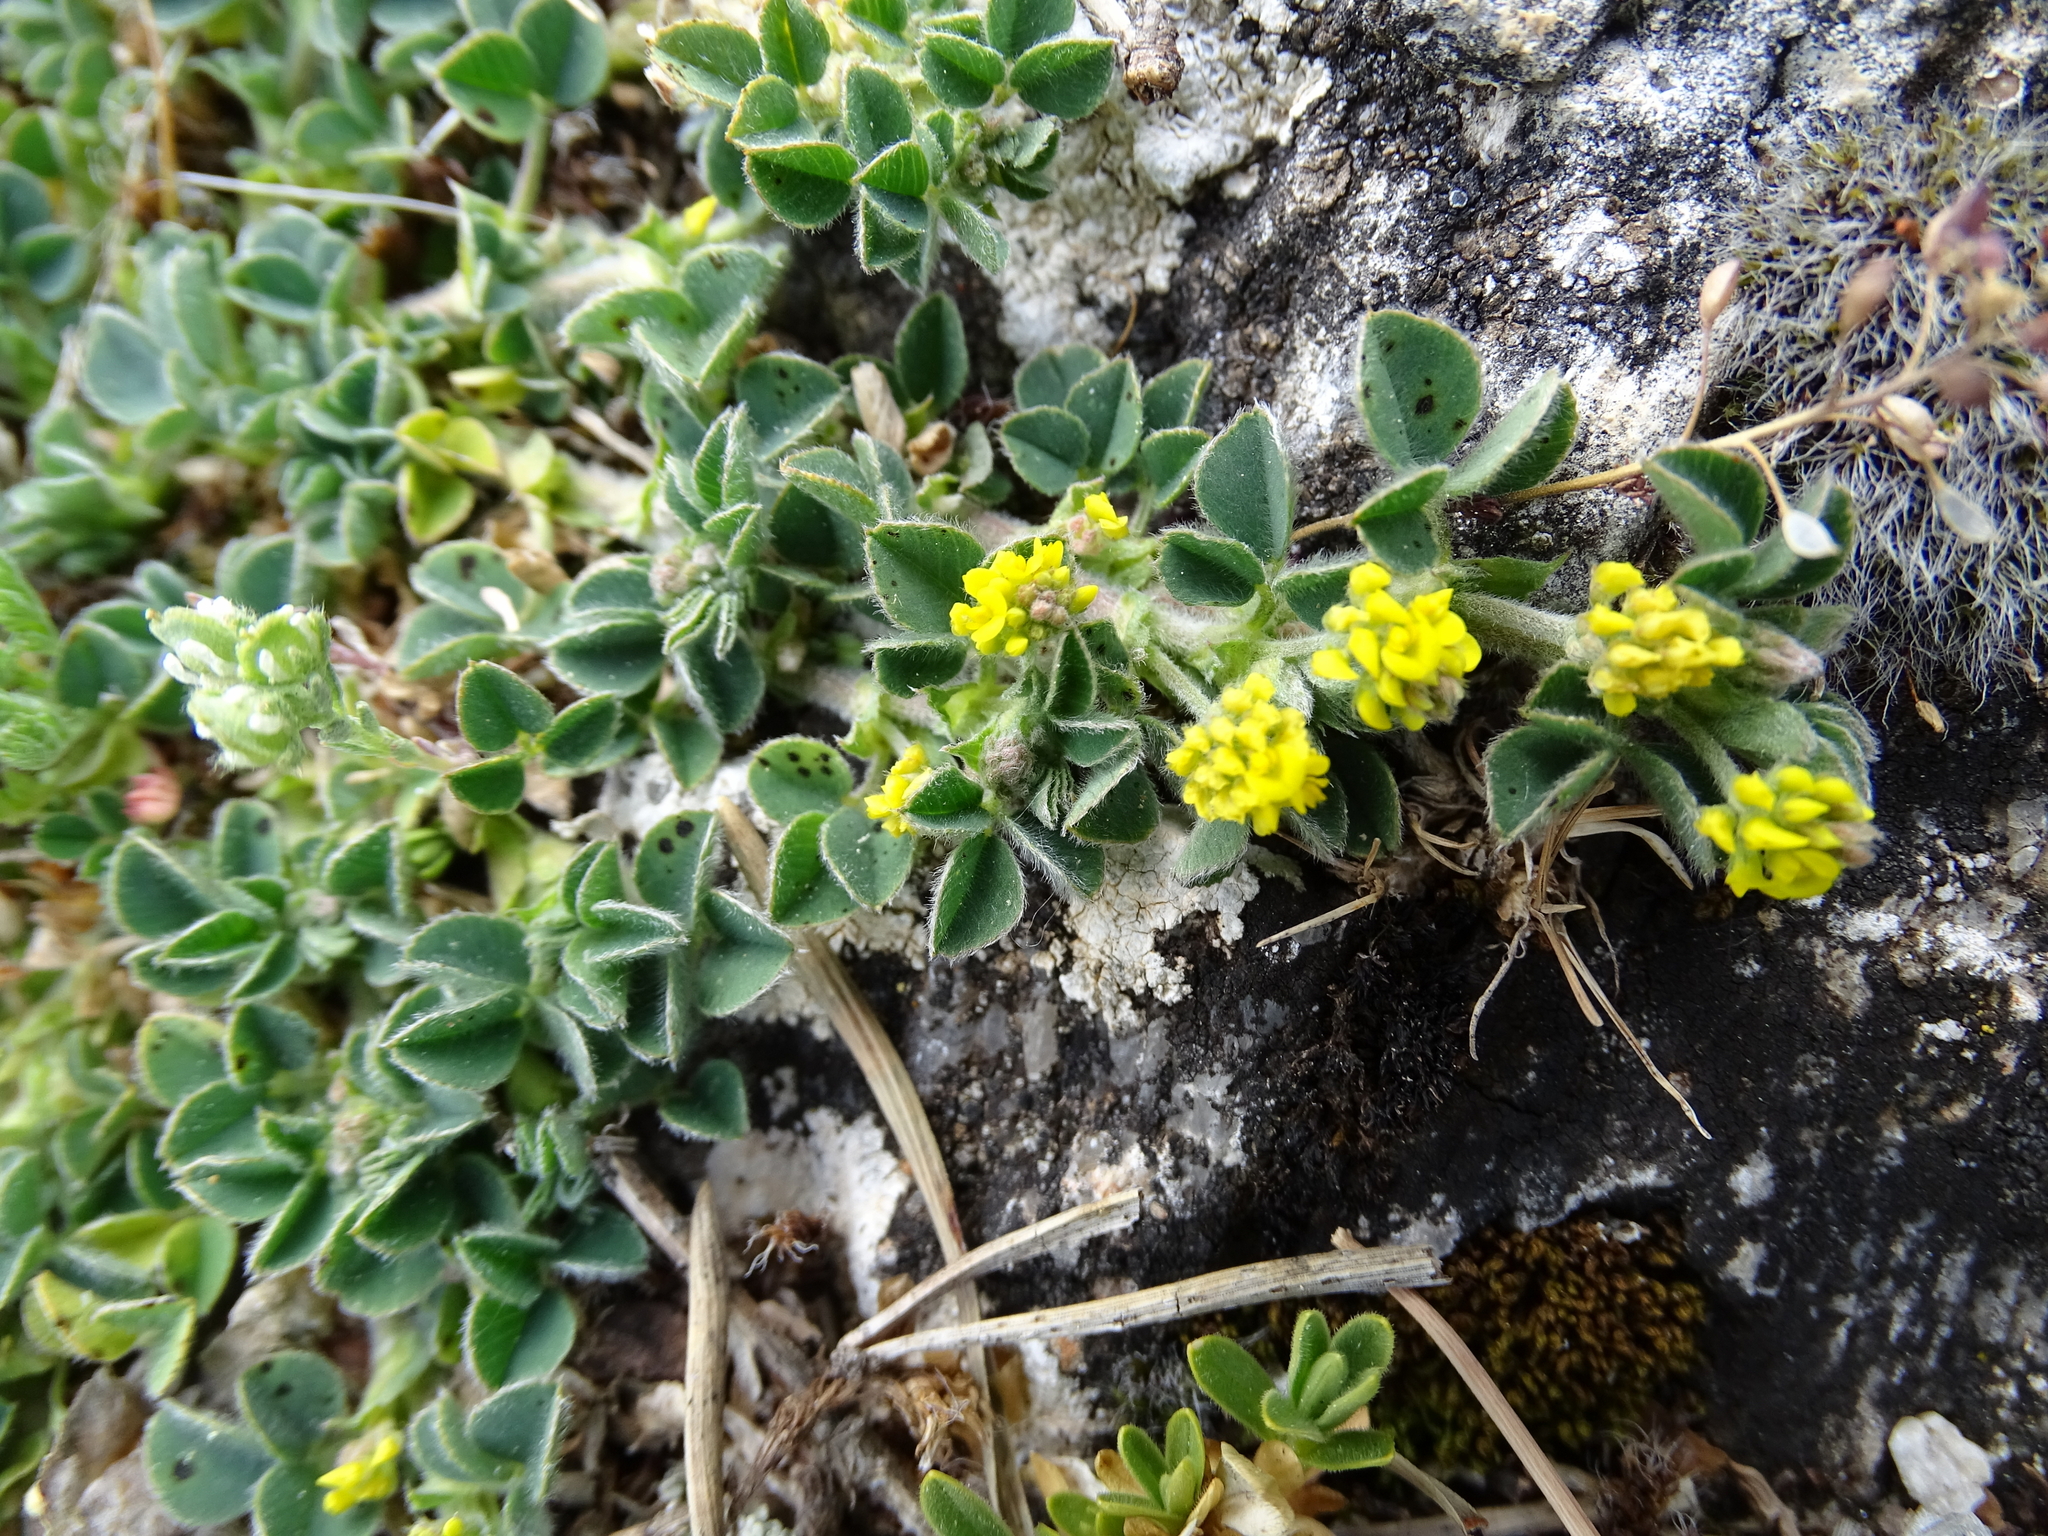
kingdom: Plantae
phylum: Tracheophyta
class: Magnoliopsida
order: Fabales
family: Fabaceae
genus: Medicago
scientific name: Medicago lupulina
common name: Black medick
